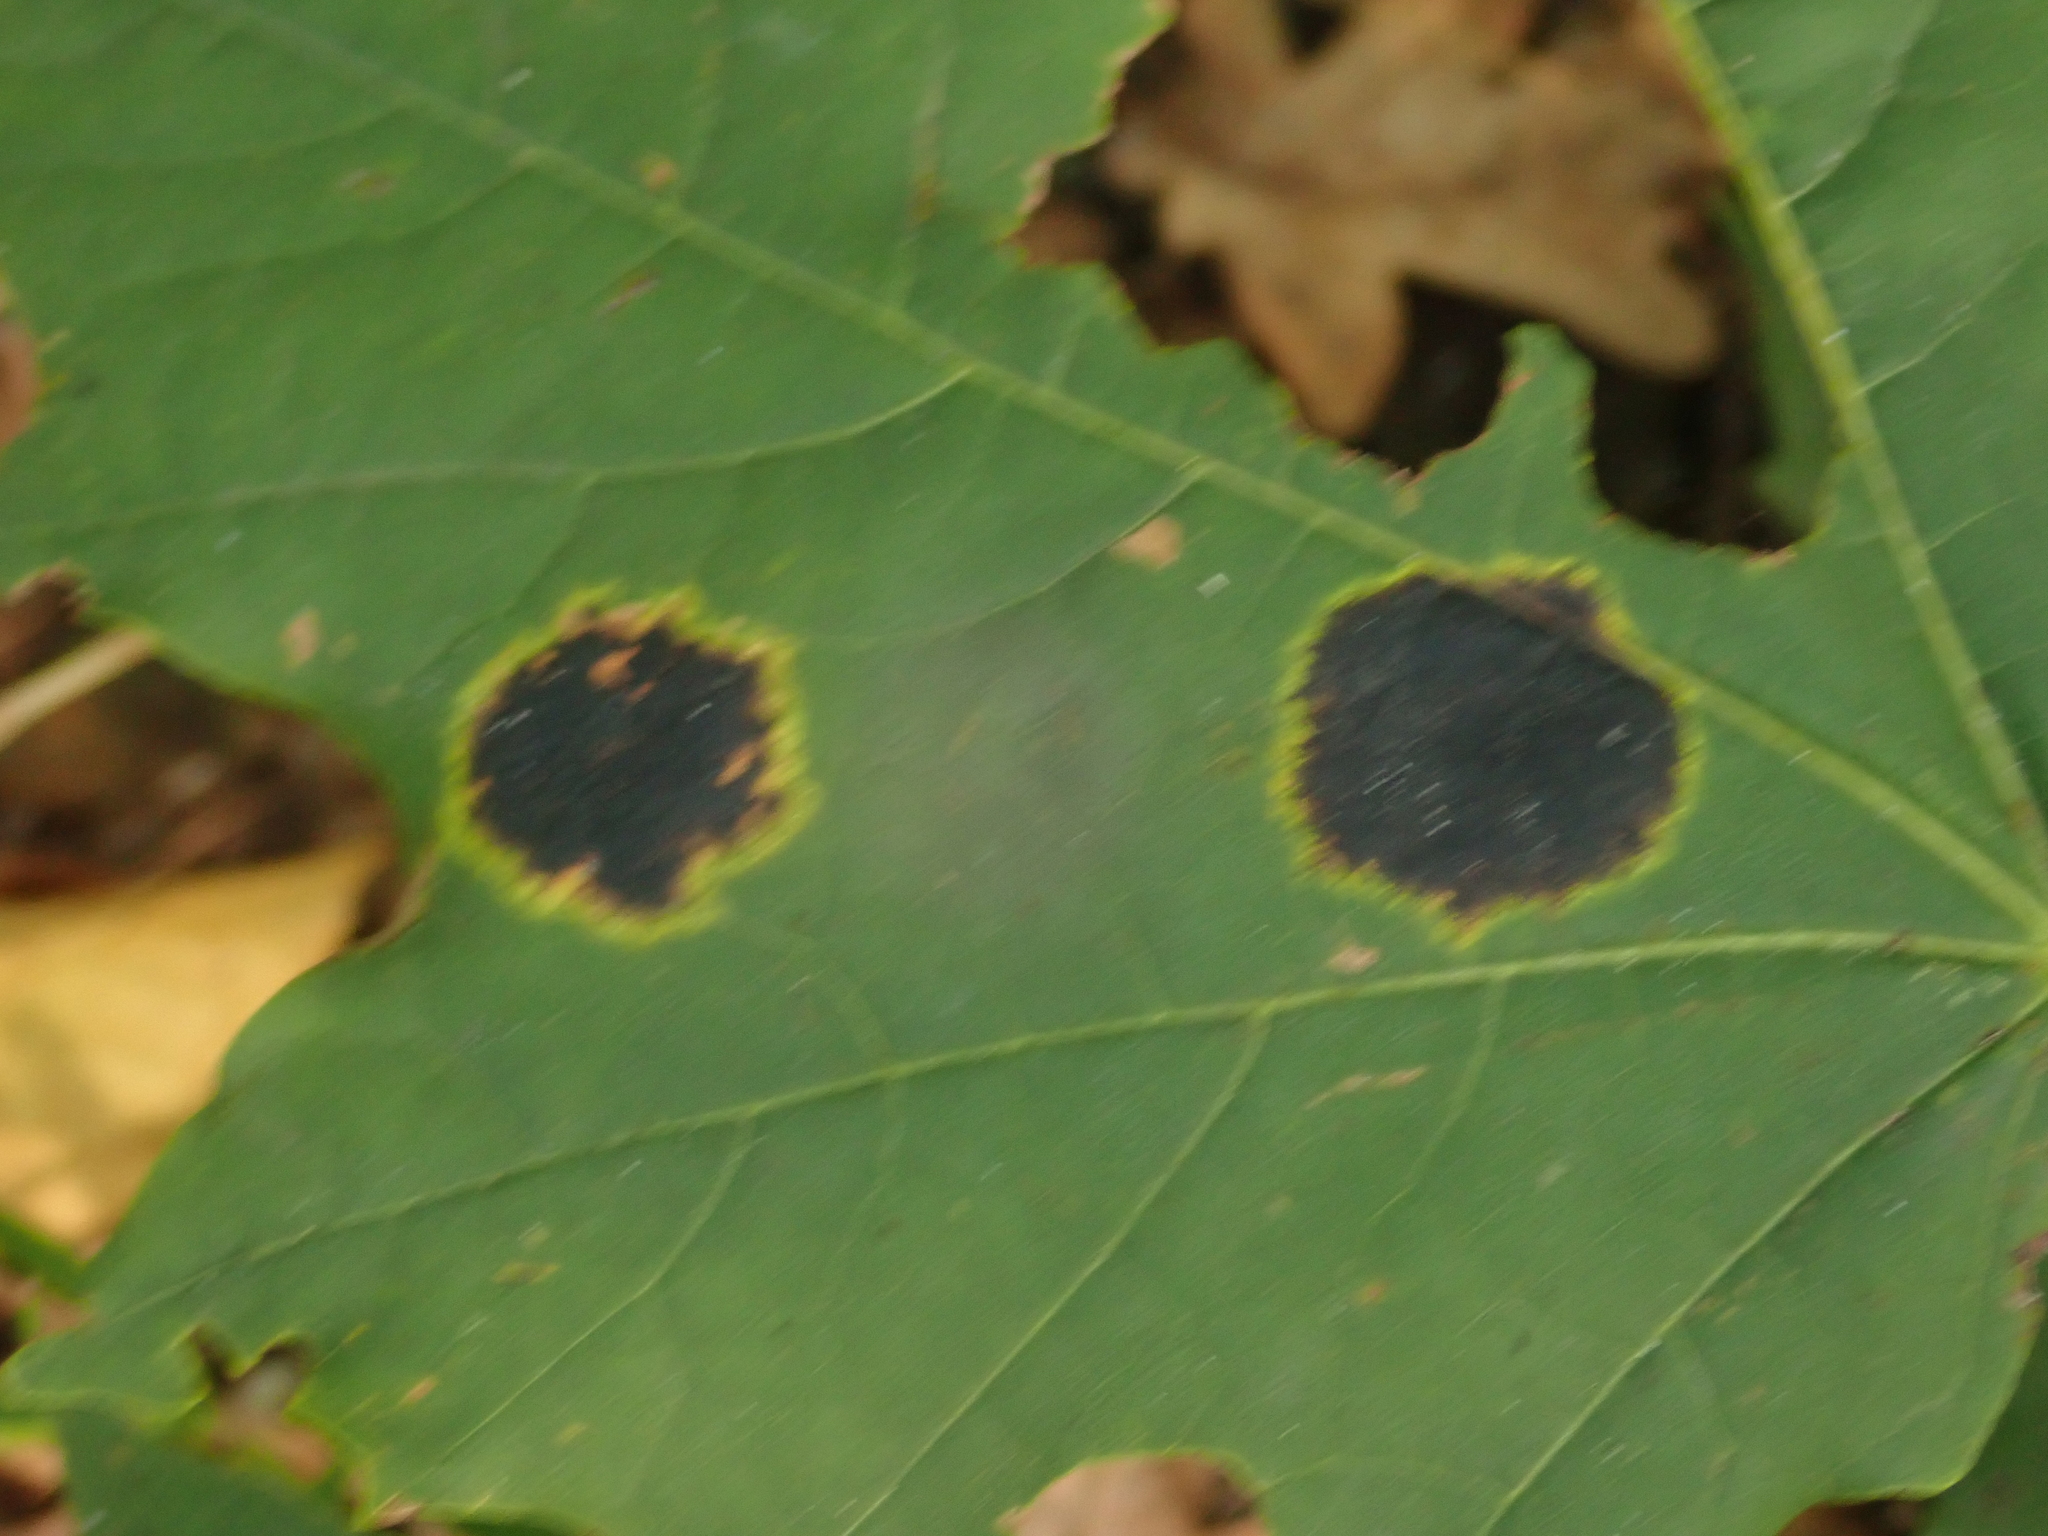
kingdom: Fungi
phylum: Ascomycota
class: Leotiomycetes
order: Rhytismatales
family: Rhytismataceae
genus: Rhytisma
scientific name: Rhytisma acerinum
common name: European tar spot
